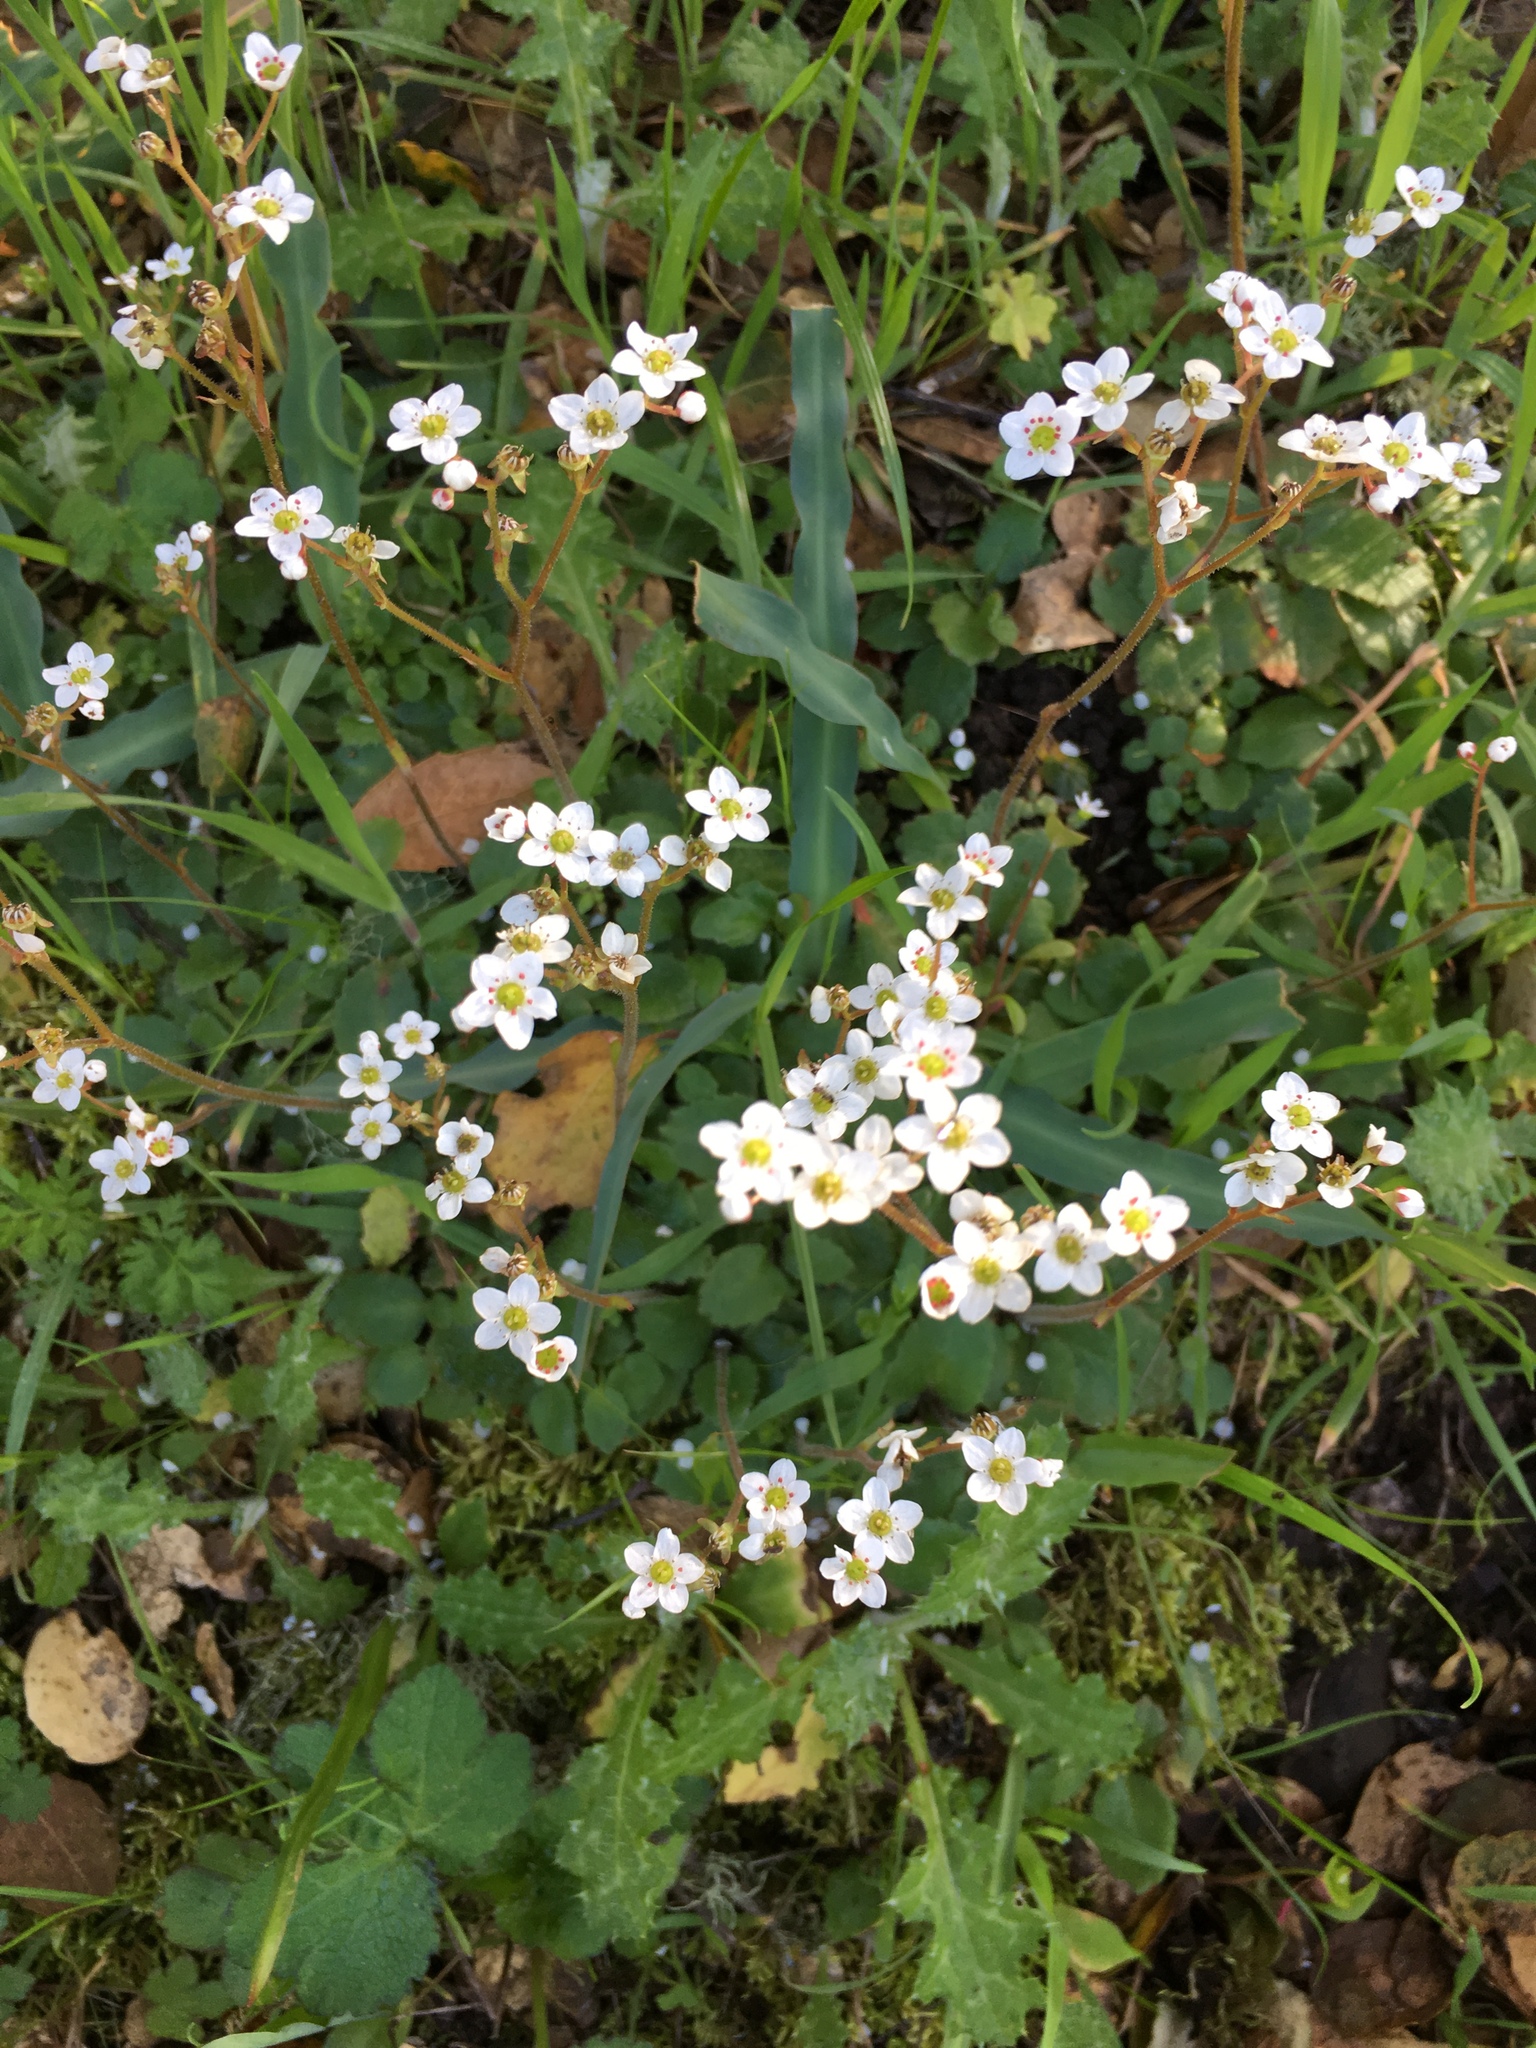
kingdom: Plantae
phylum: Tracheophyta
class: Magnoliopsida
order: Saxifragales
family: Saxifragaceae
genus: Micranthes
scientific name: Micranthes californica
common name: California saxifrage
